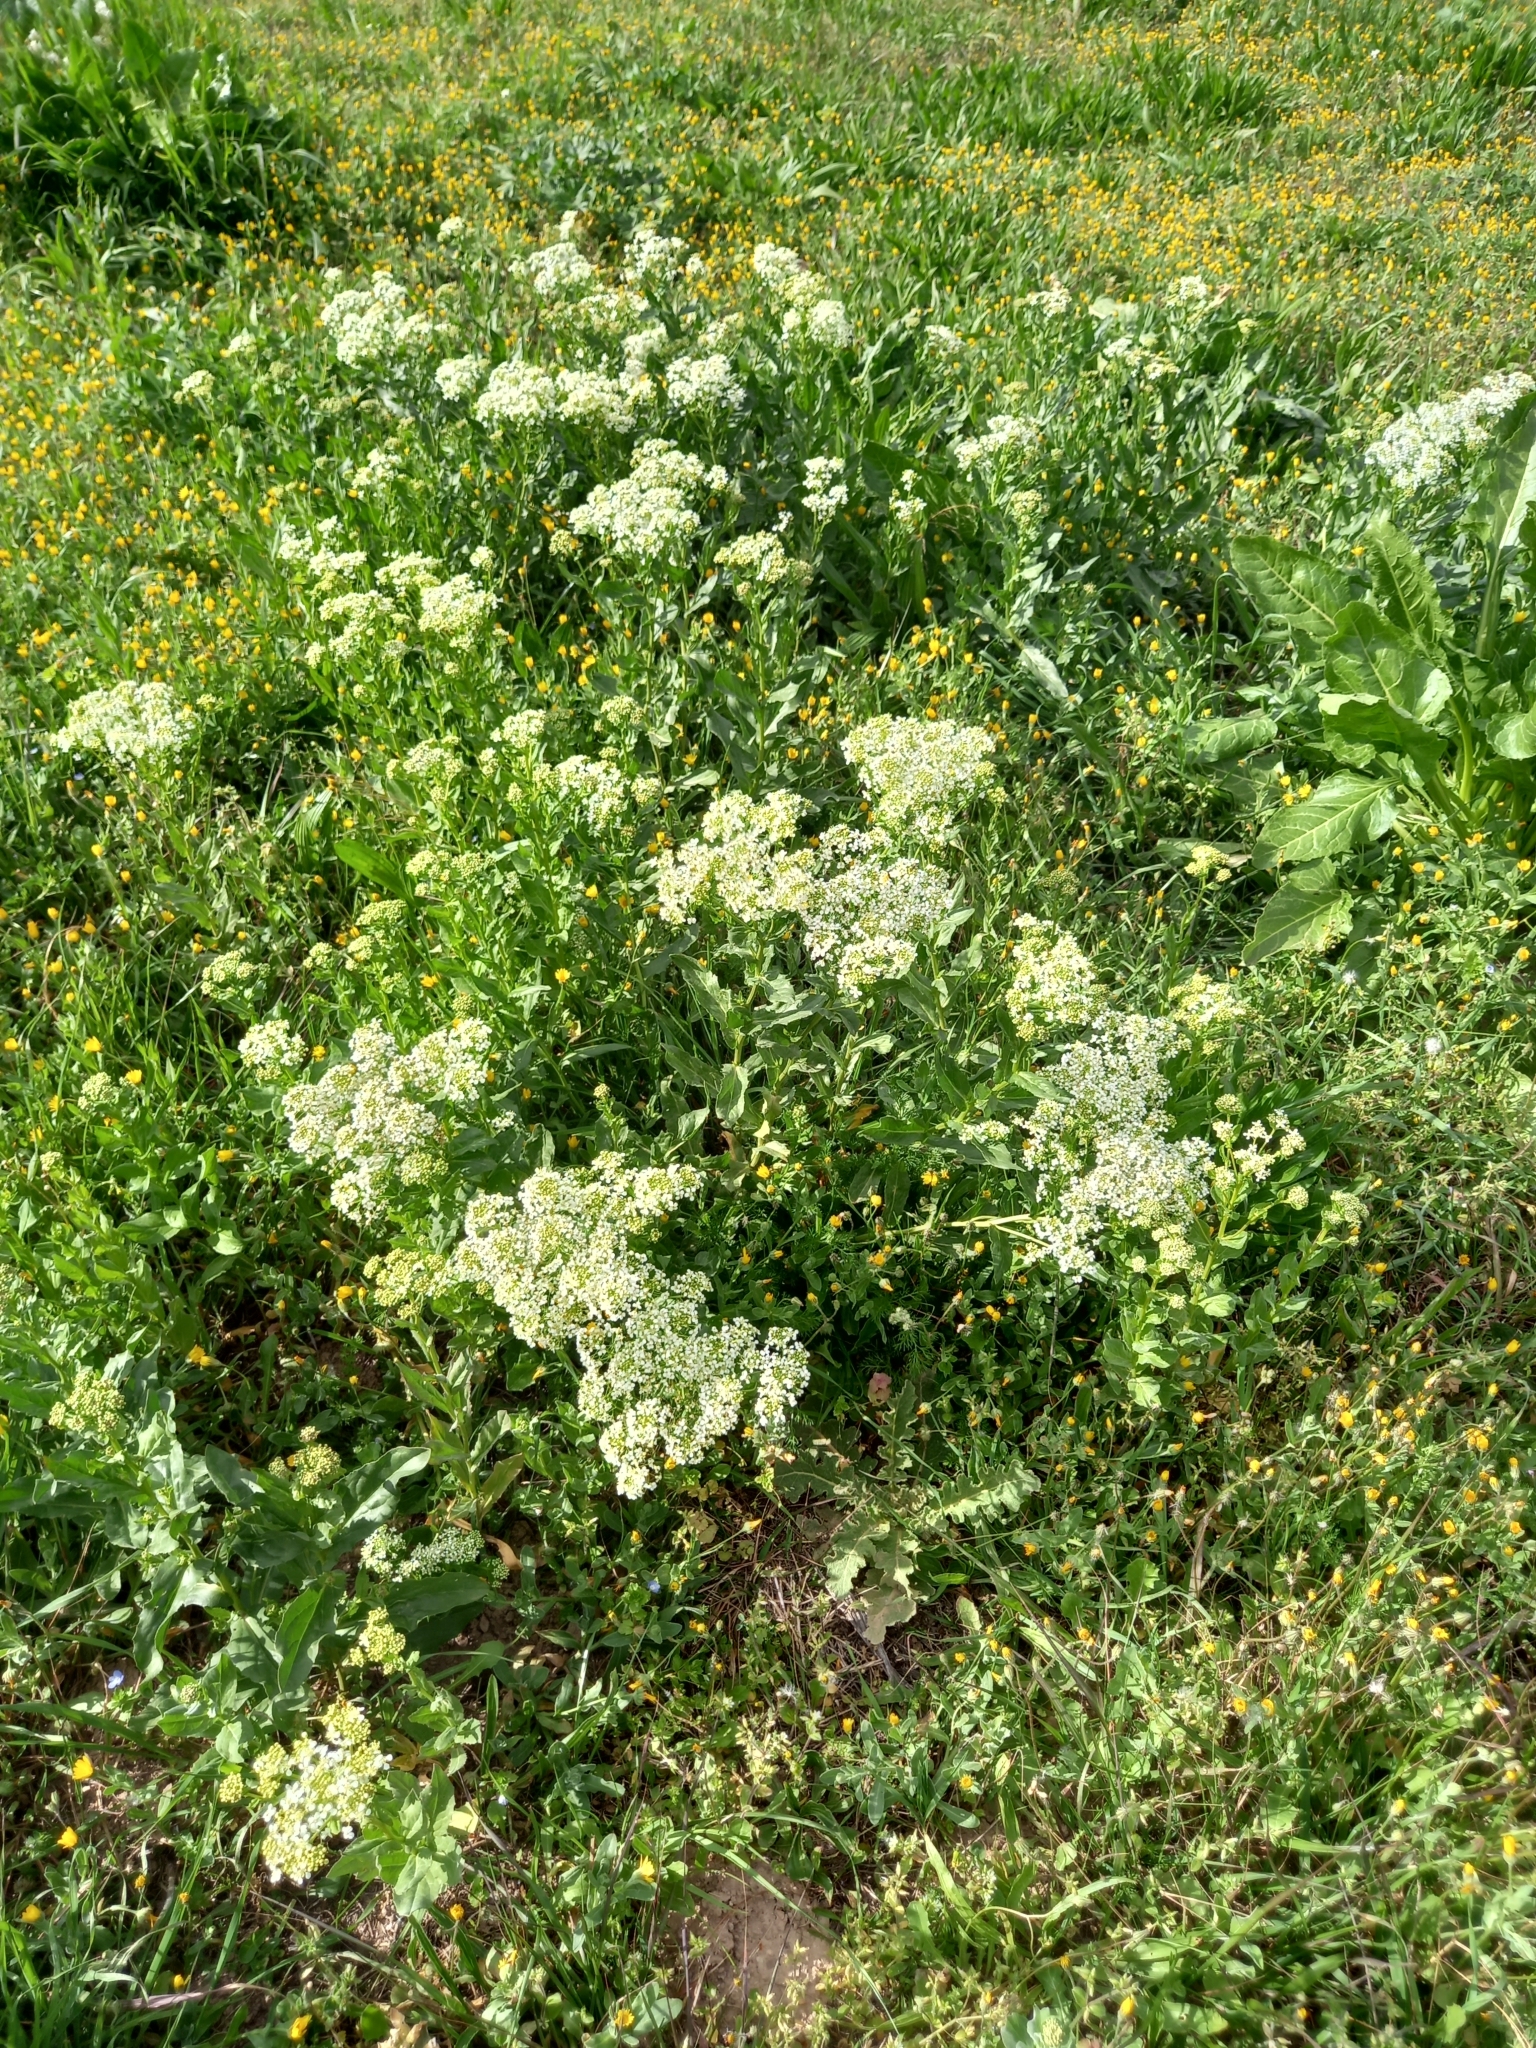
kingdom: Plantae
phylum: Tracheophyta
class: Magnoliopsida
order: Brassicales
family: Brassicaceae
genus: Lepidium
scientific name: Lepidium draba
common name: Hoary cress
